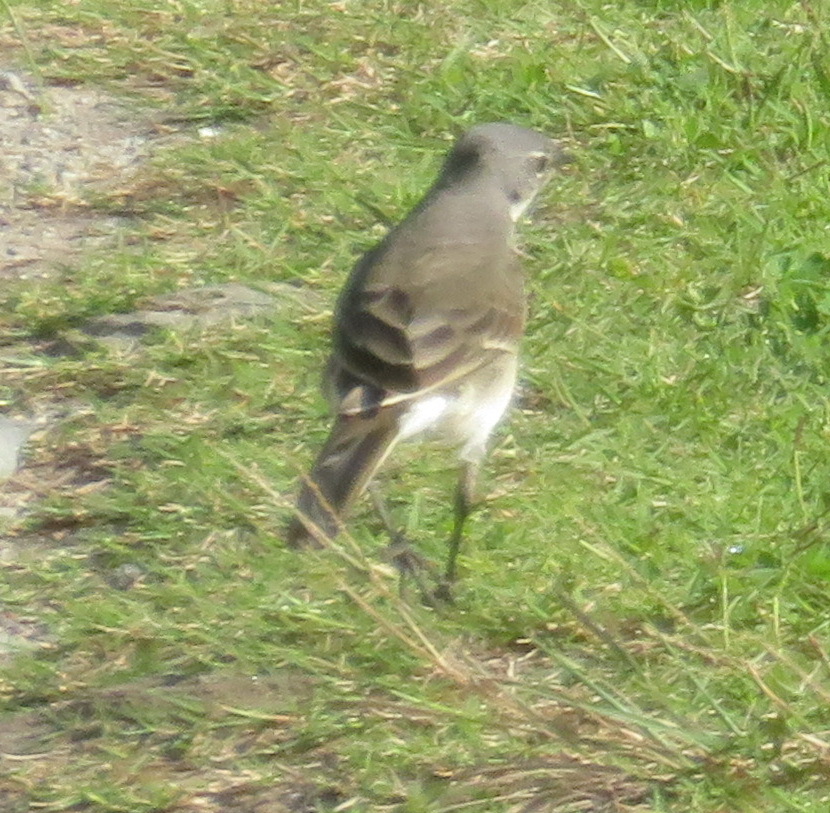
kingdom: Animalia
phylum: Chordata
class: Aves
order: Passeriformes
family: Motacillidae
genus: Motacilla
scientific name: Motacilla capensis
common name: Cape wagtail
